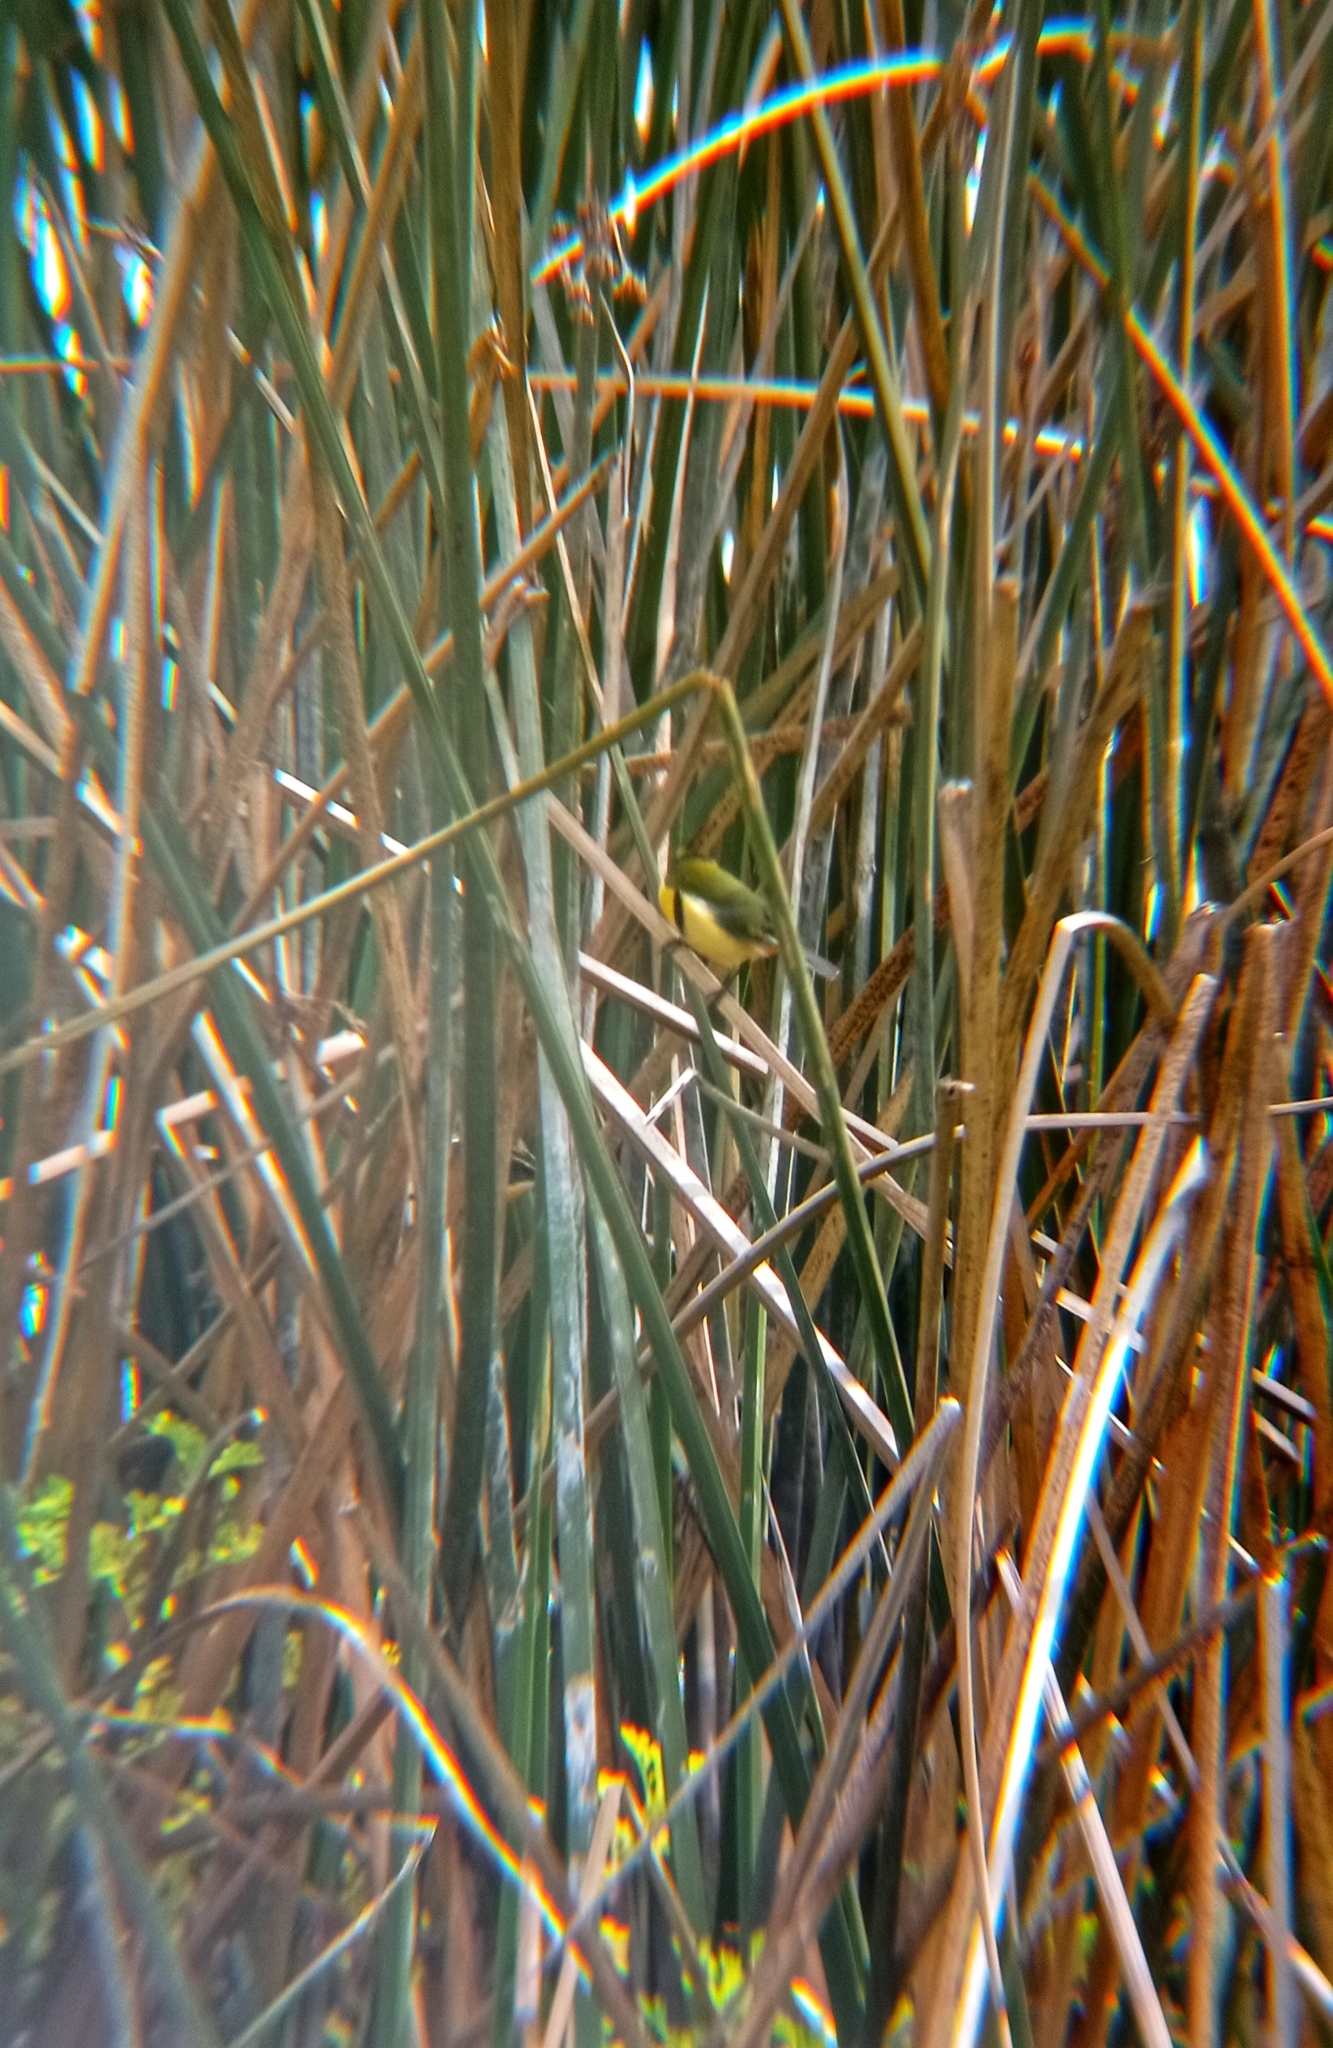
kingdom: Animalia
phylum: Chordata
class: Aves
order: Passeriformes
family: Tyrannidae
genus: Tachuris
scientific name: Tachuris rubrigastra
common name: Many-colored rush tyrant
